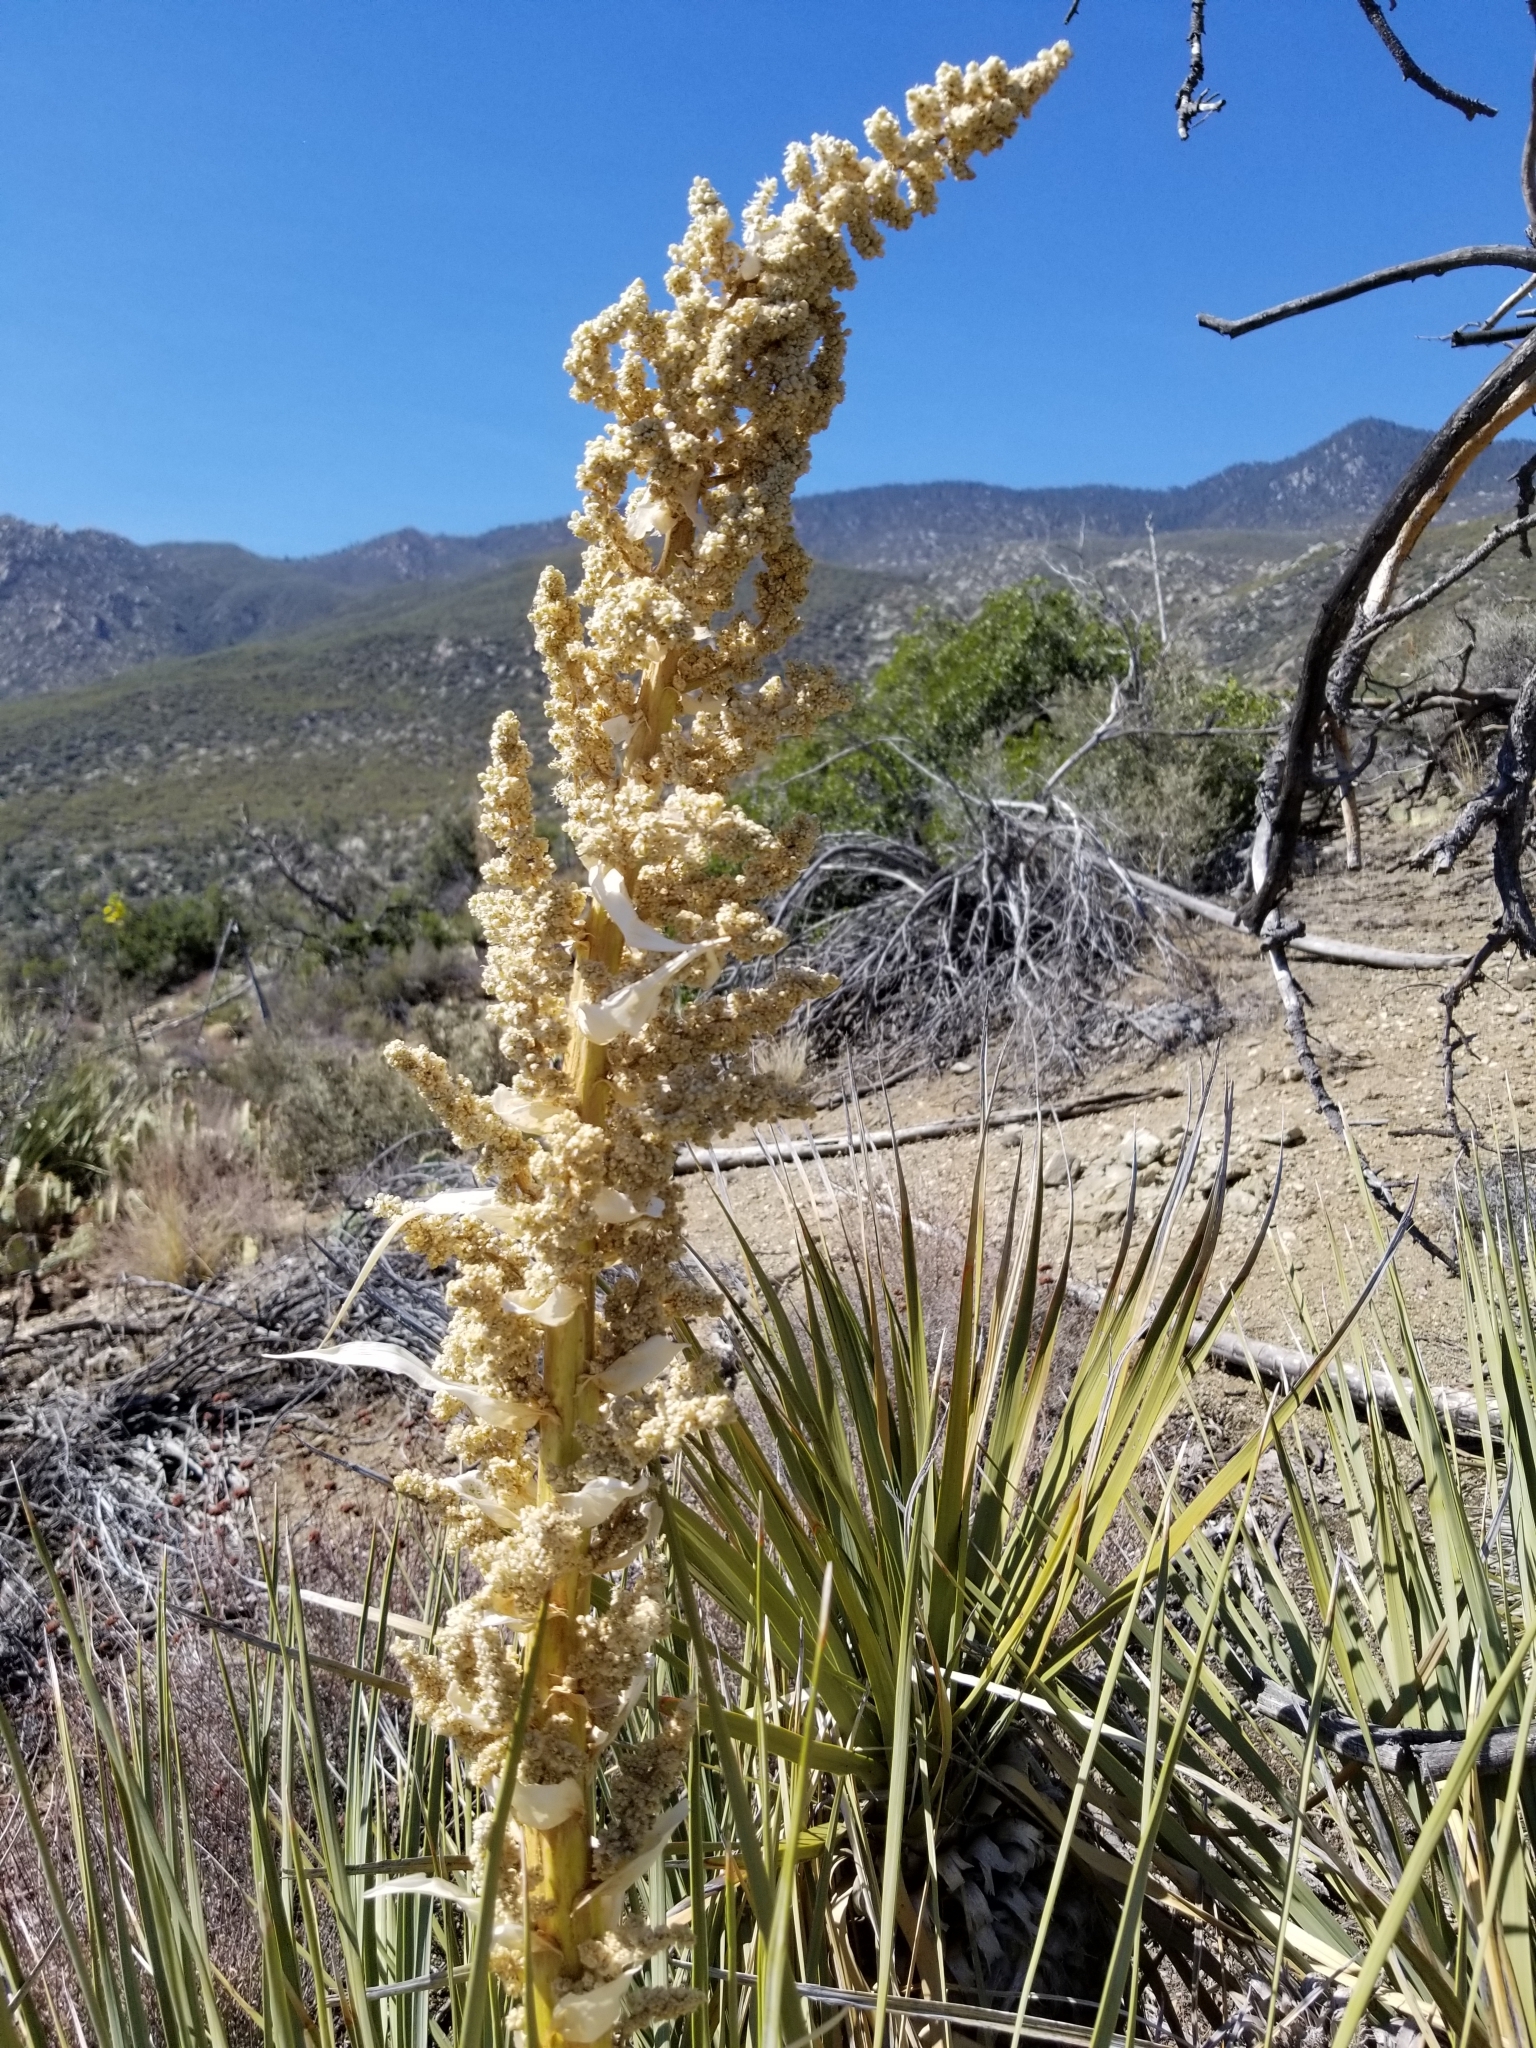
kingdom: Plantae
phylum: Tracheophyta
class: Liliopsida
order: Asparagales
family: Asparagaceae
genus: Nolina
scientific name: Nolina parryi
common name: Parry nolina
